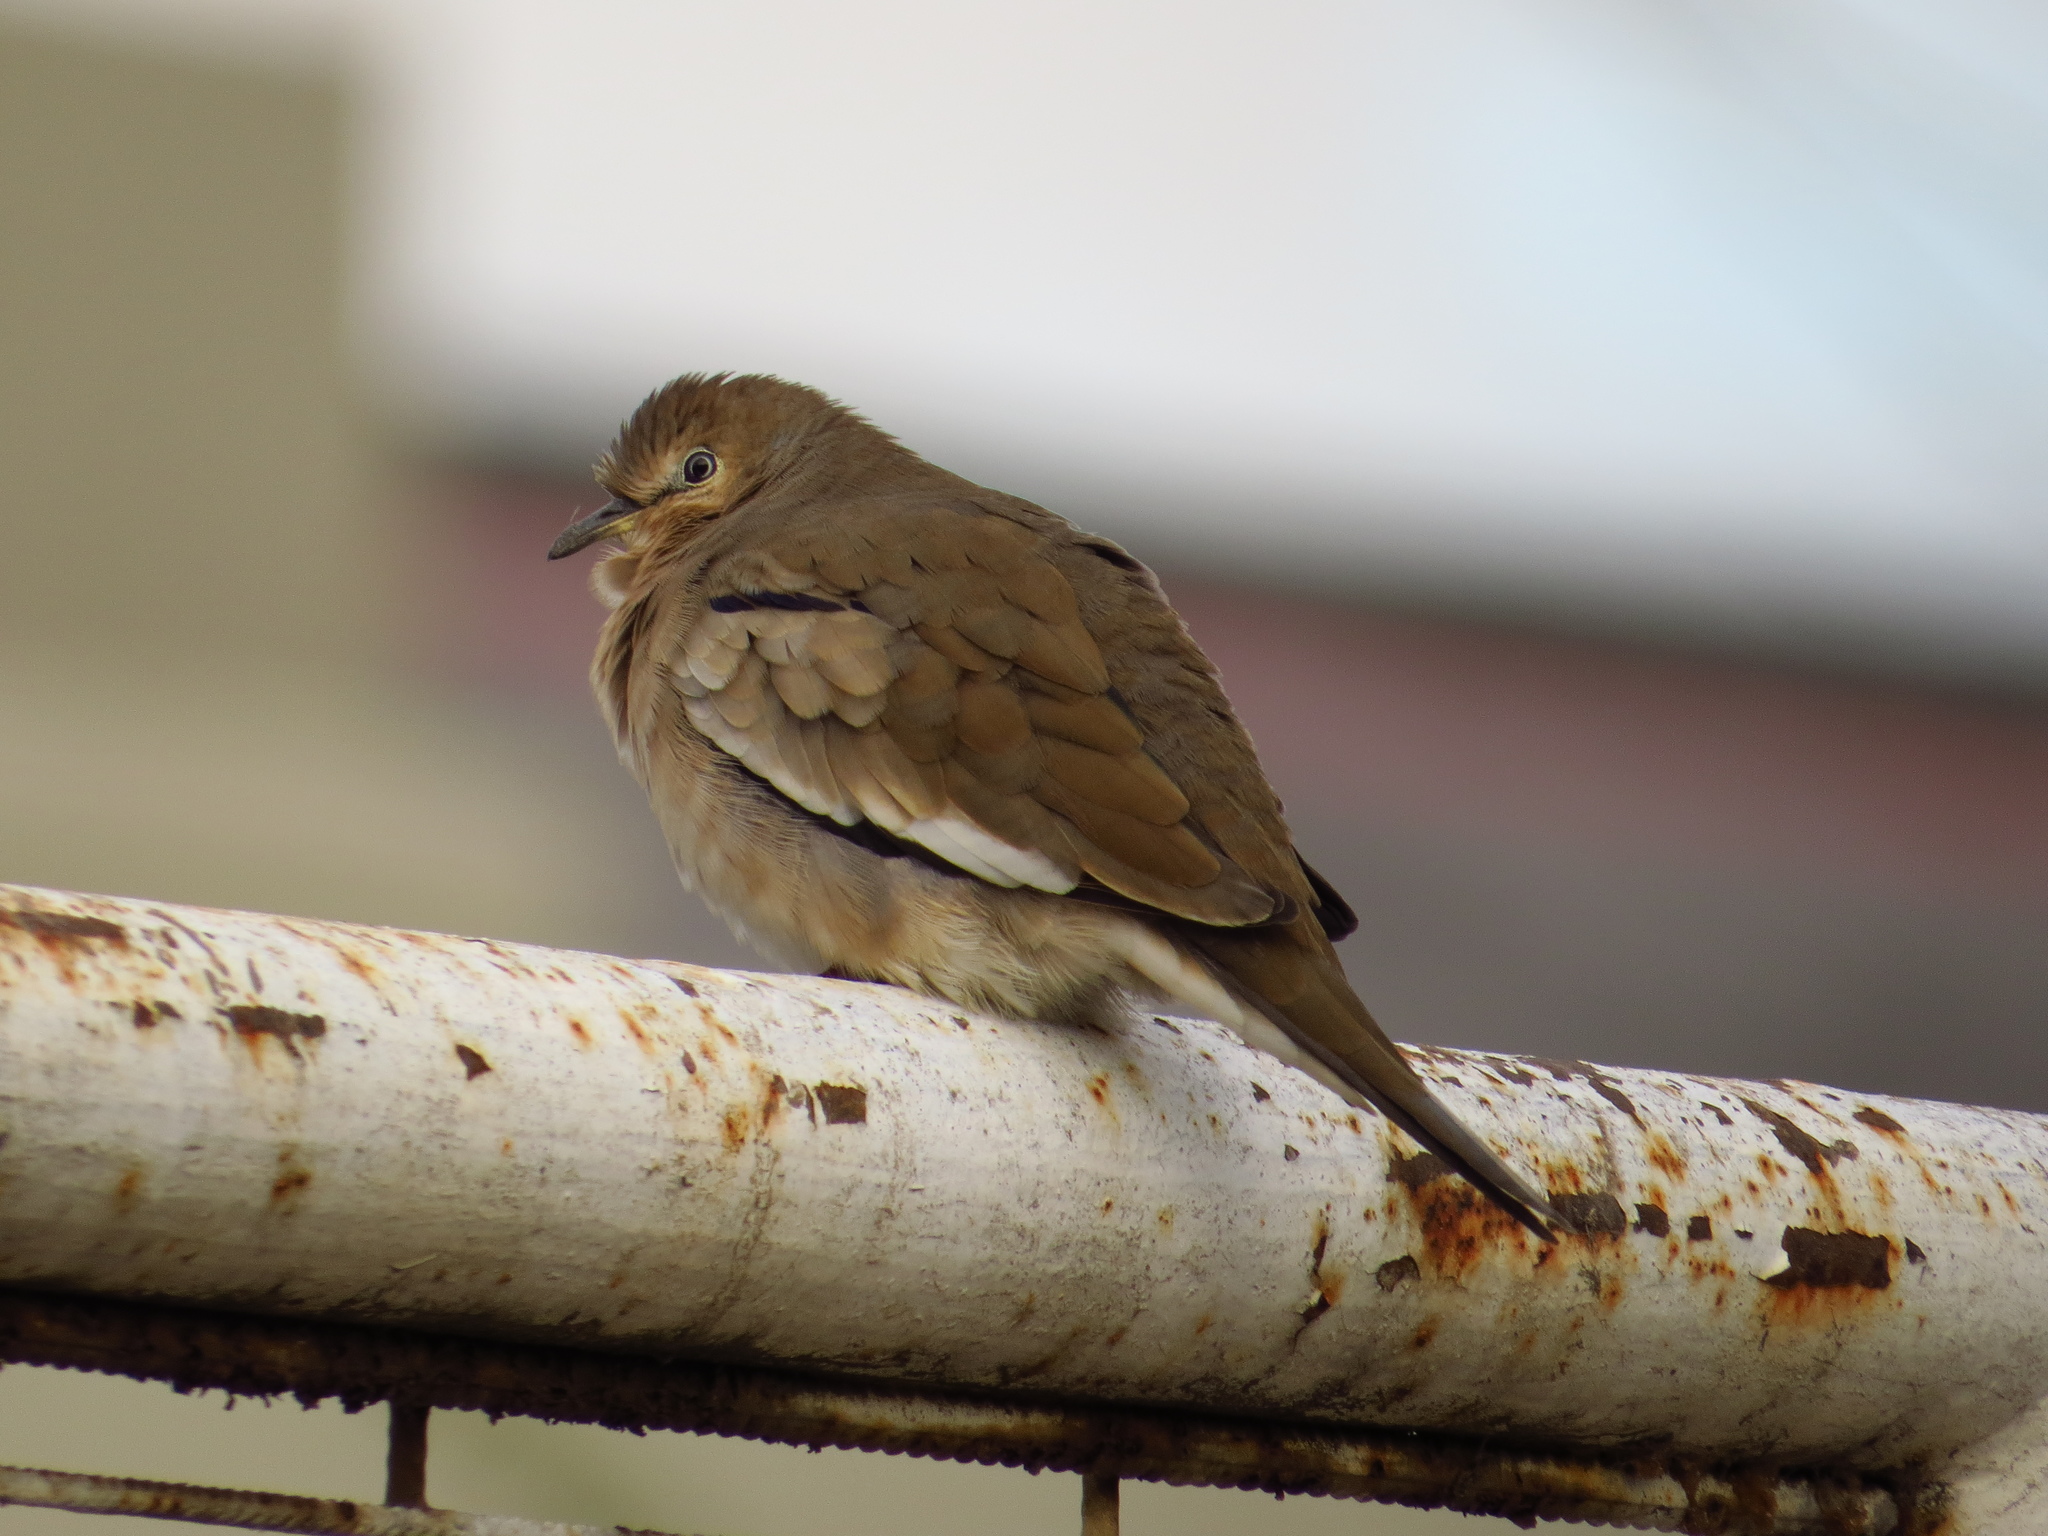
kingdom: Animalia
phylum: Chordata
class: Aves
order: Columbiformes
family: Columbidae
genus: Columbina
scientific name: Columbina picui
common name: Picui ground dove
